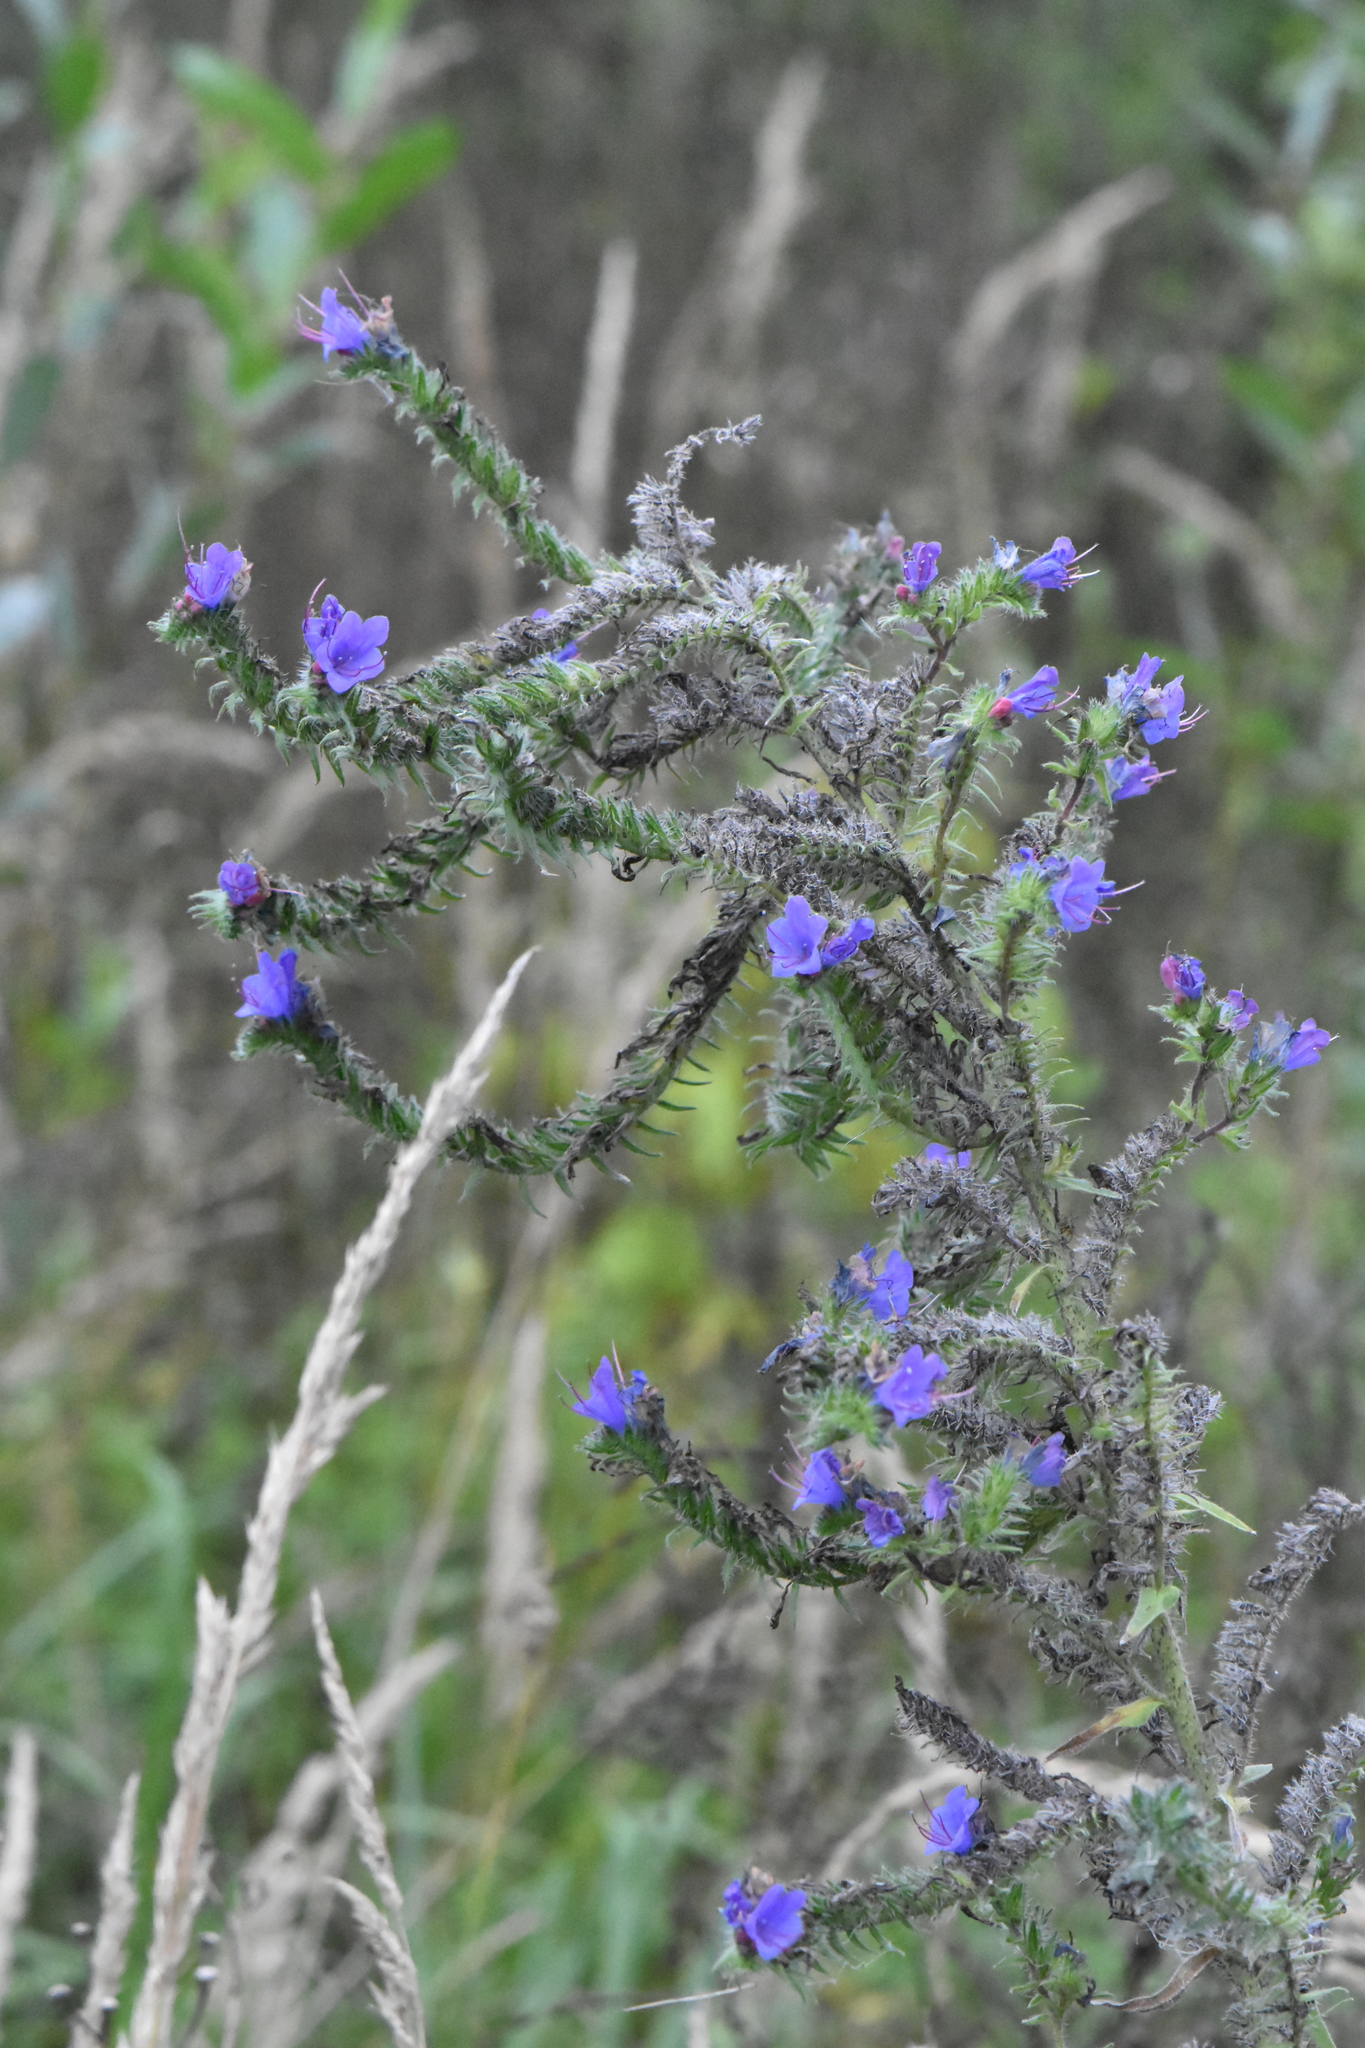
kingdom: Plantae
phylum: Tracheophyta
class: Magnoliopsida
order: Boraginales
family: Boraginaceae
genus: Echium
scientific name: Echium vulgare
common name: Common viper's bugloss
